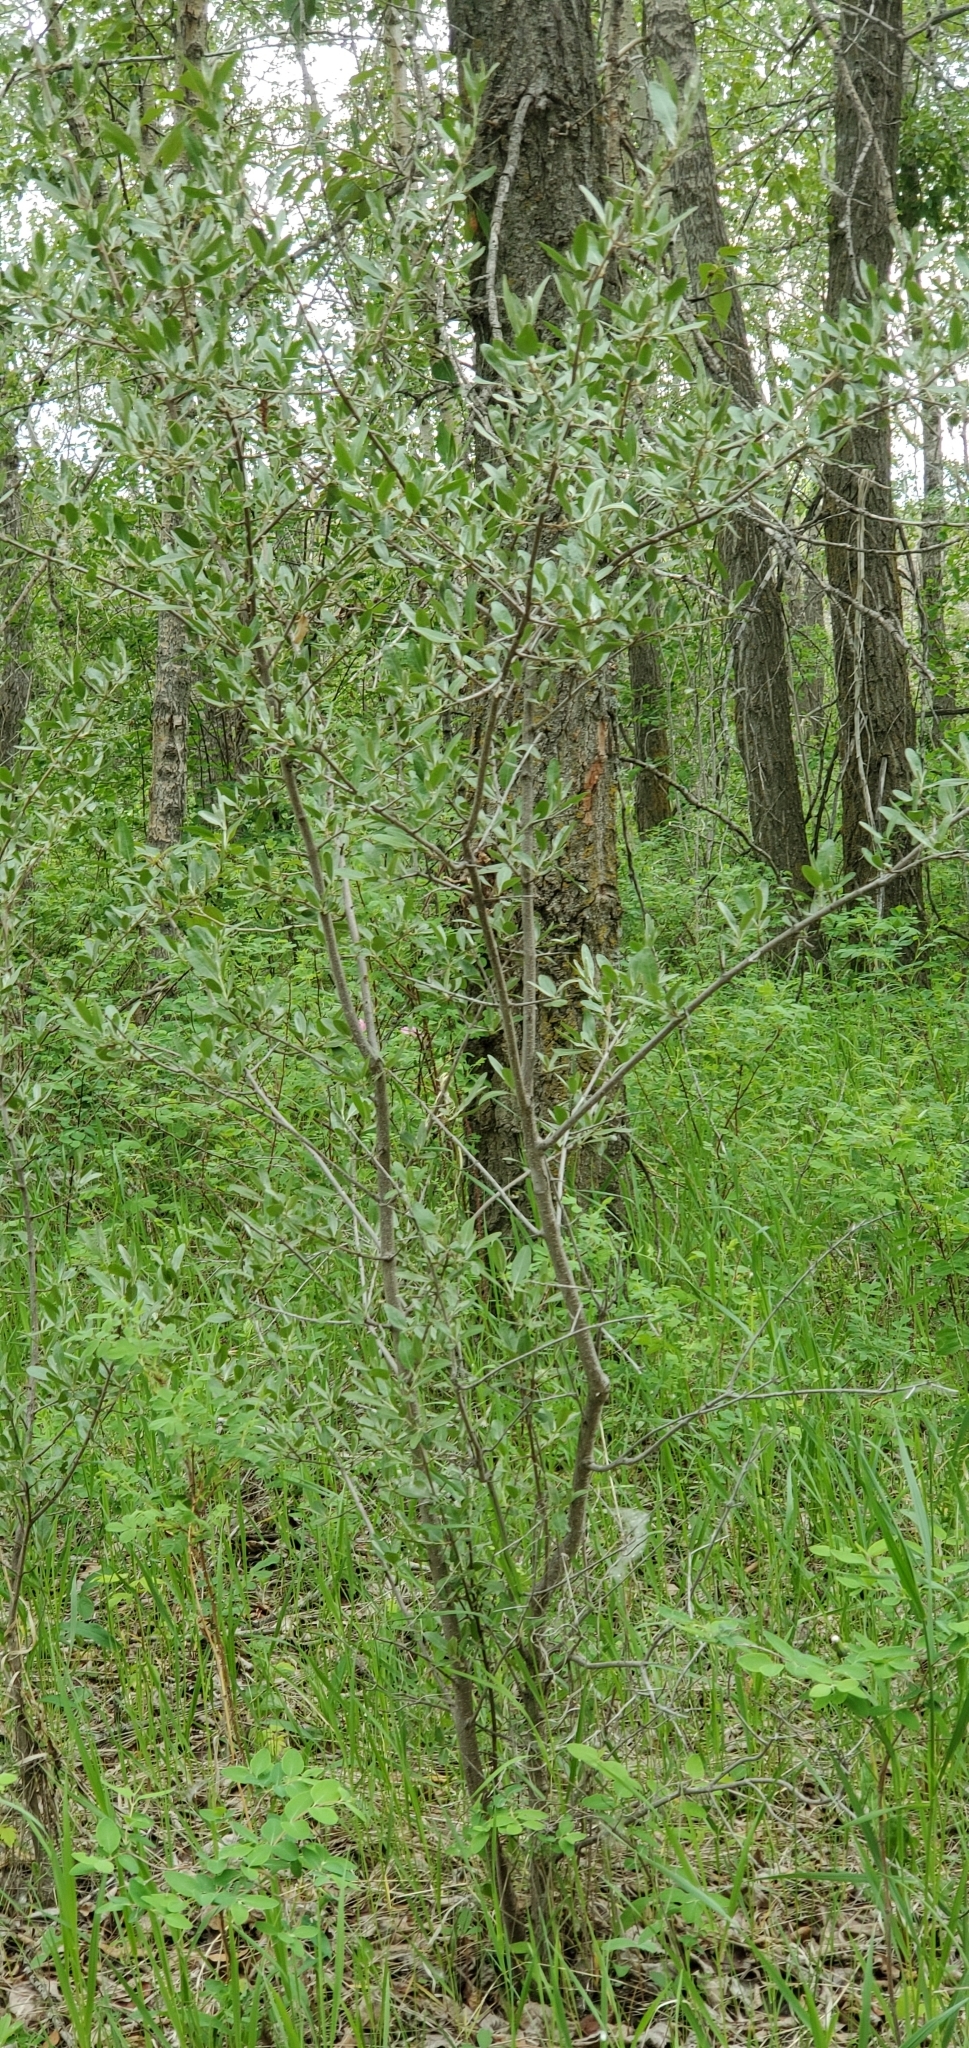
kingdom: Plantae
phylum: Tracheophyta
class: Magnoliopsida
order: Rosales
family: Elaeagnaceae
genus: Shepherdia
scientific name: Shepherdia argentea
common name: Silver buffaloberry
